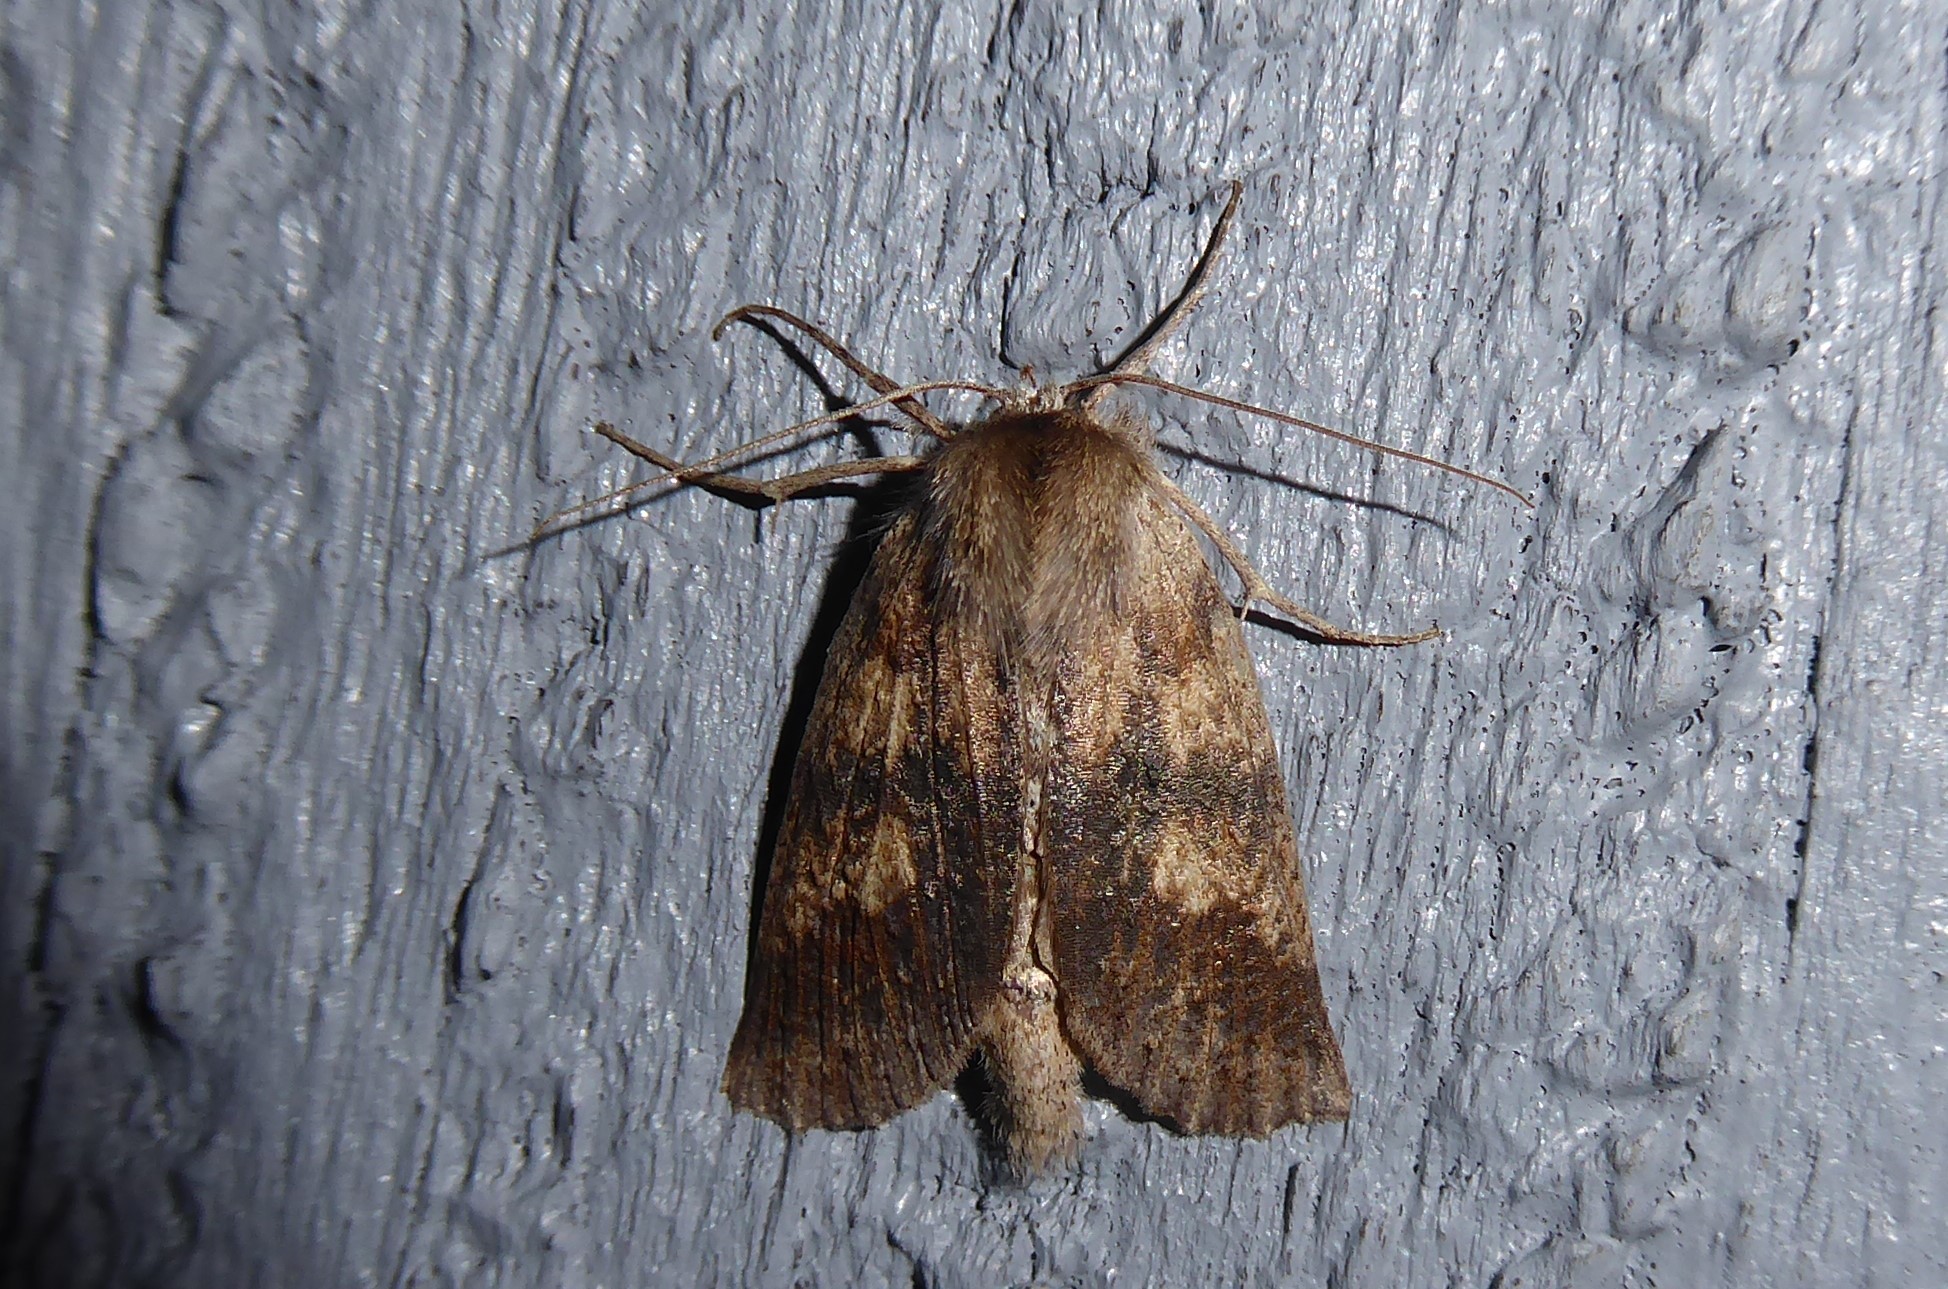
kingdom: Animalia
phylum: Arthropoda
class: Insecta
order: Lepidoptera
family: Geometridae
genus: Declana
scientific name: Declana leptomera
